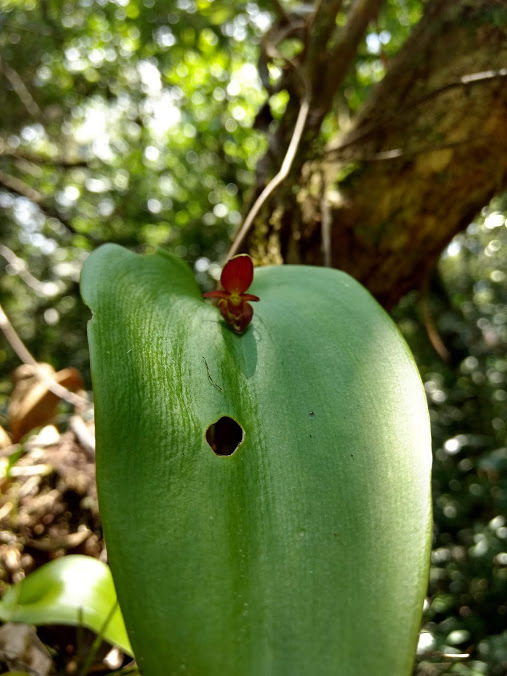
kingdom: Plantae
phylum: Tracheophyta
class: Liliopsida
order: Asparagales
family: Orchidaceae
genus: Pleurothallis
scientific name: Pleurothallis cardiothallis
